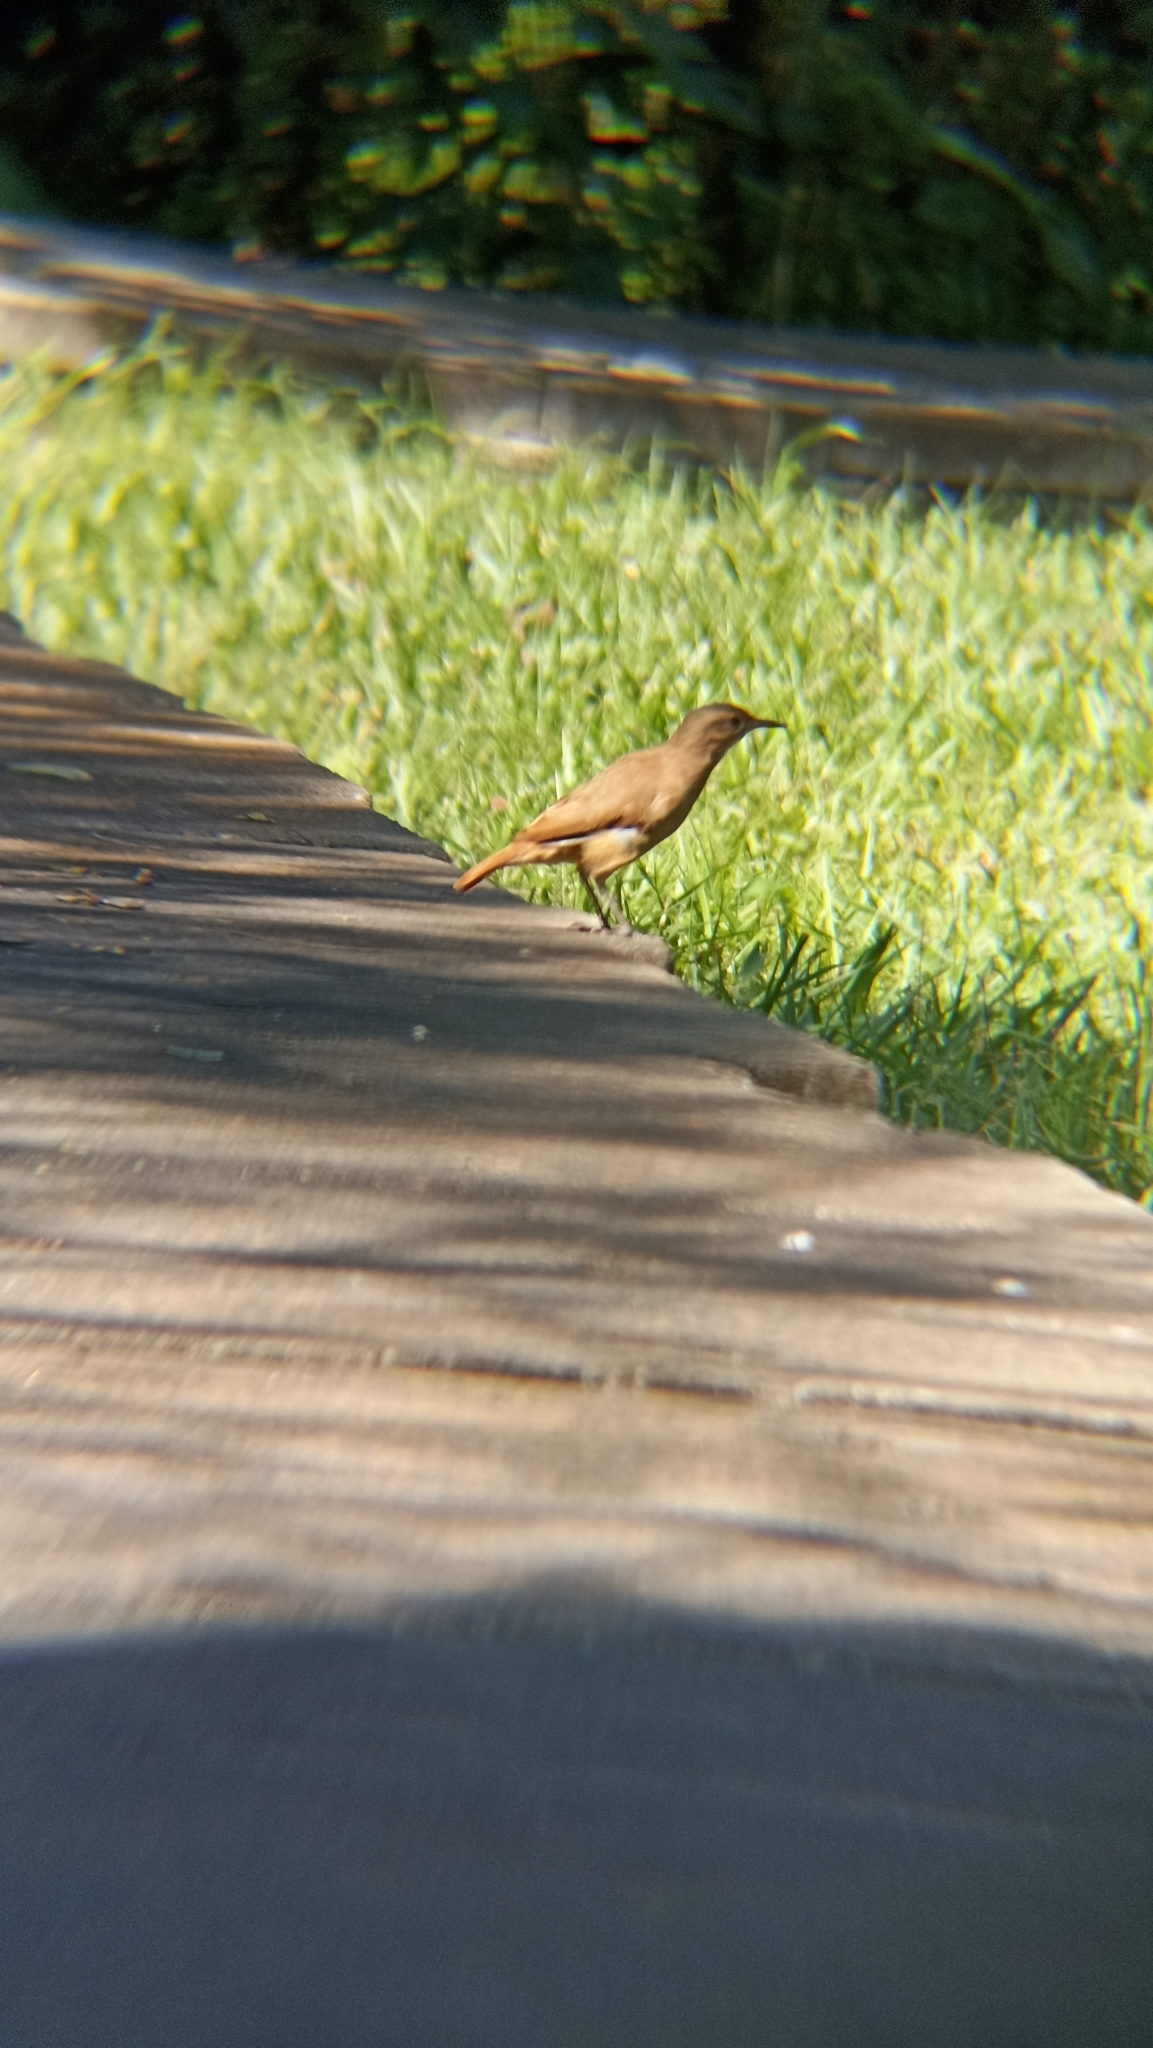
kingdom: Animalia
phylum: Chordata
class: Aves
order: Passeriformes
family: Furnariidae
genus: Furnarius
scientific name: Furnarius rufus
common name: Rufous hornero
